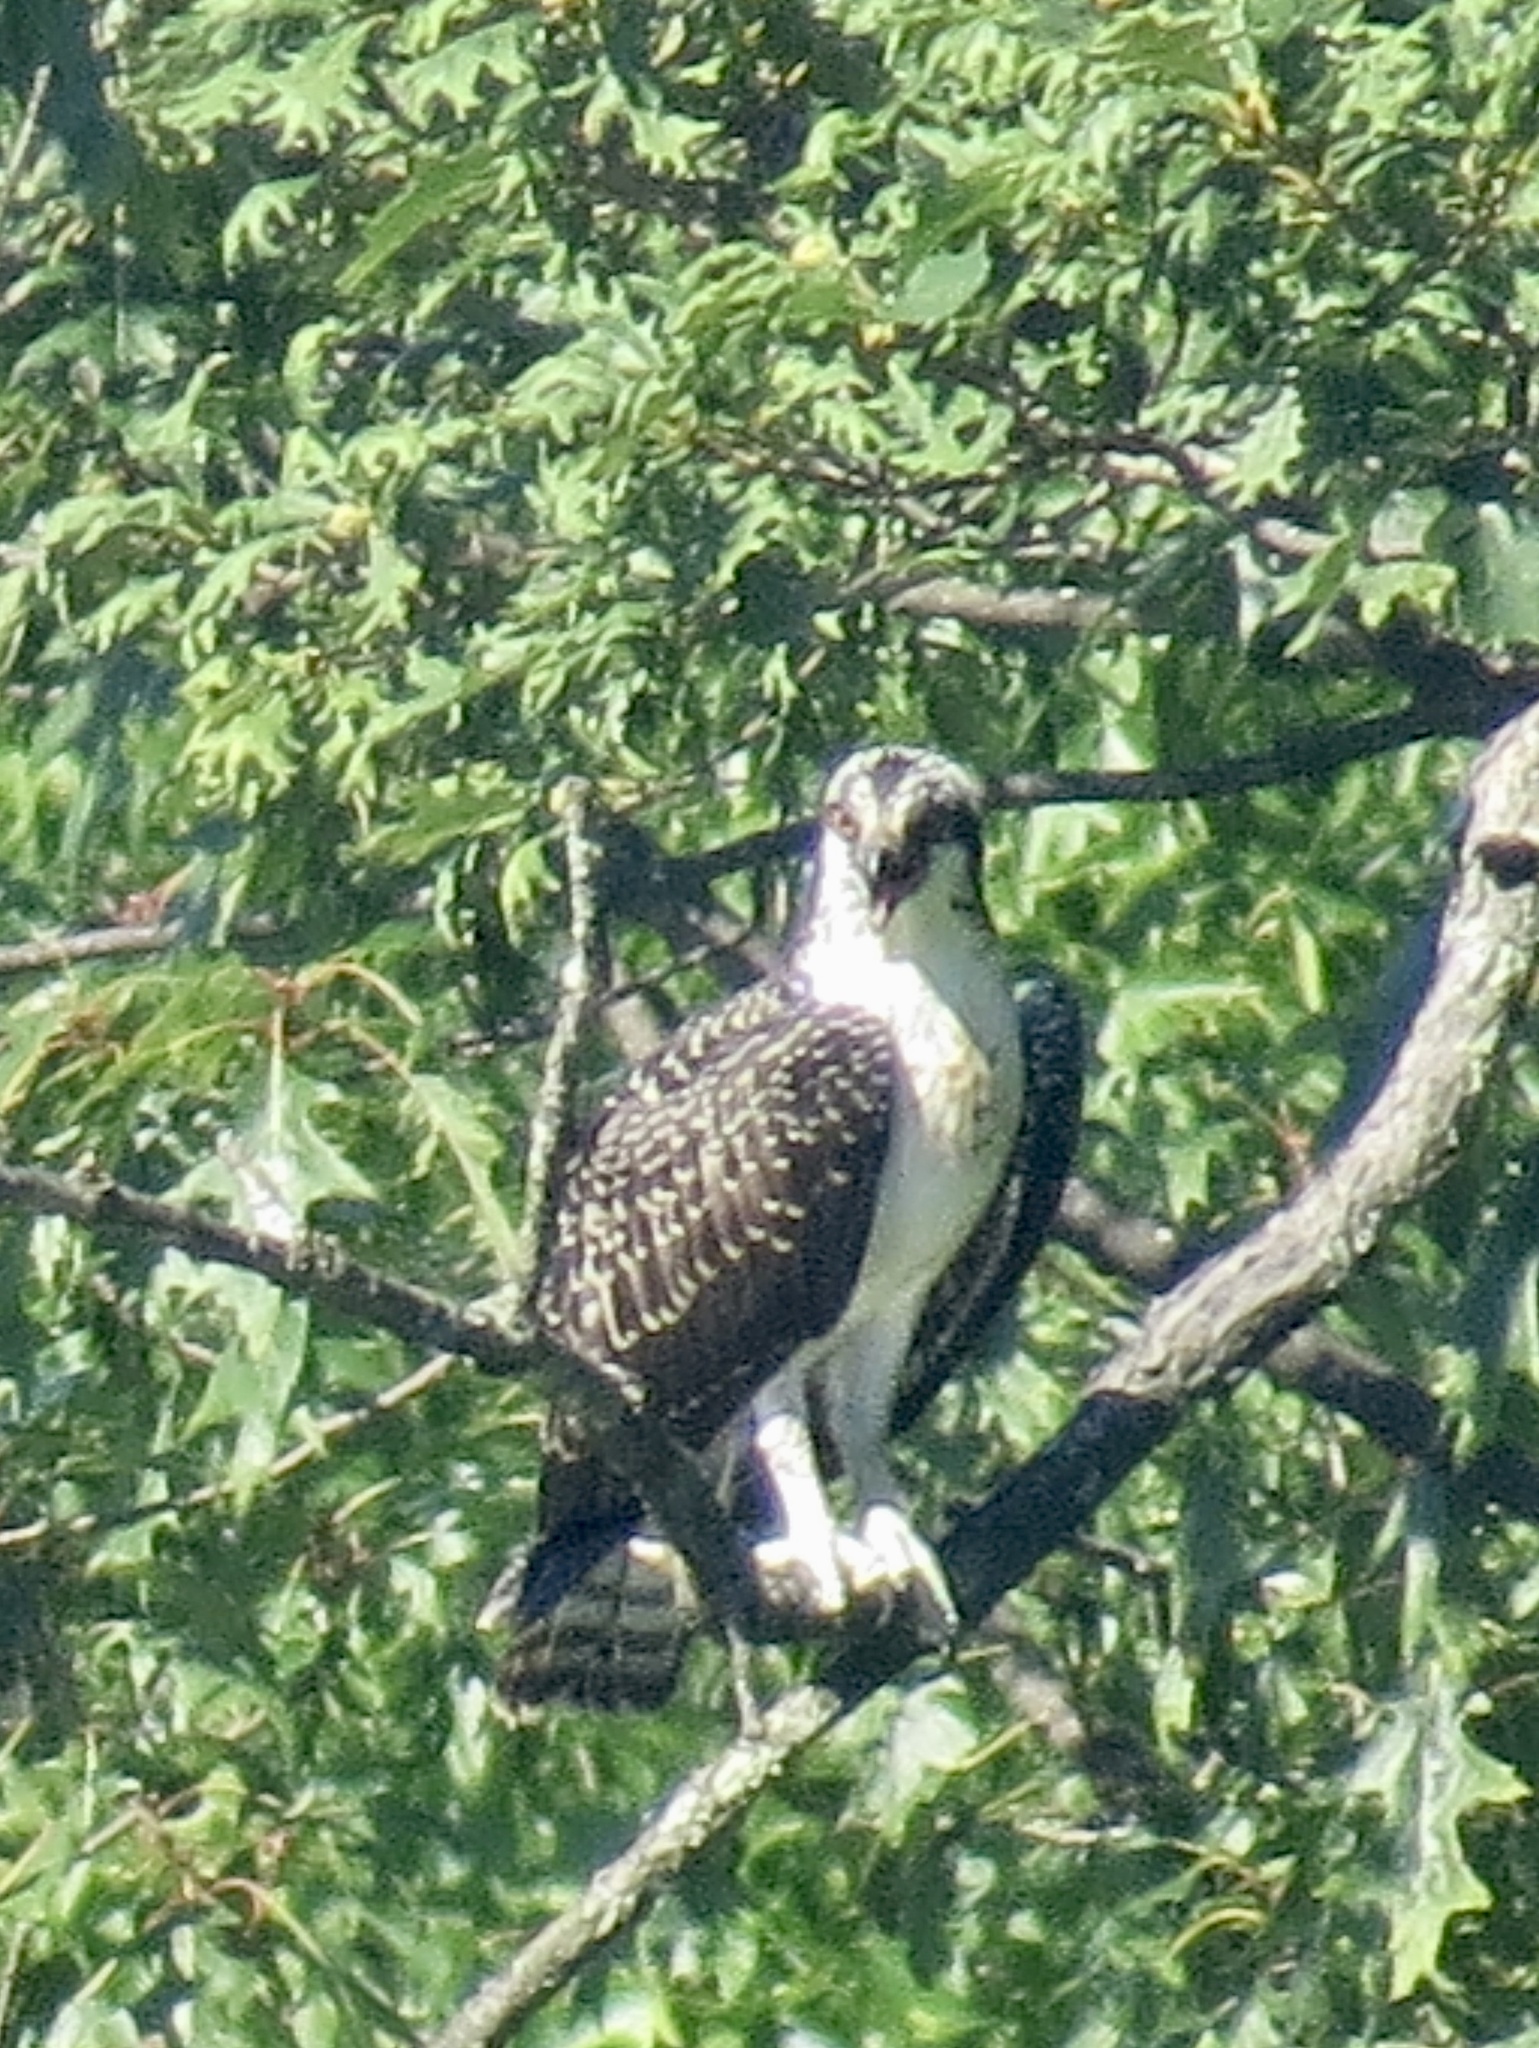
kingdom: Animalia
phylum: Chordata
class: Aves
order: Accipitriformes
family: Pandionidae
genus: Pandion
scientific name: Pandion haliaetus
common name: Osprey
